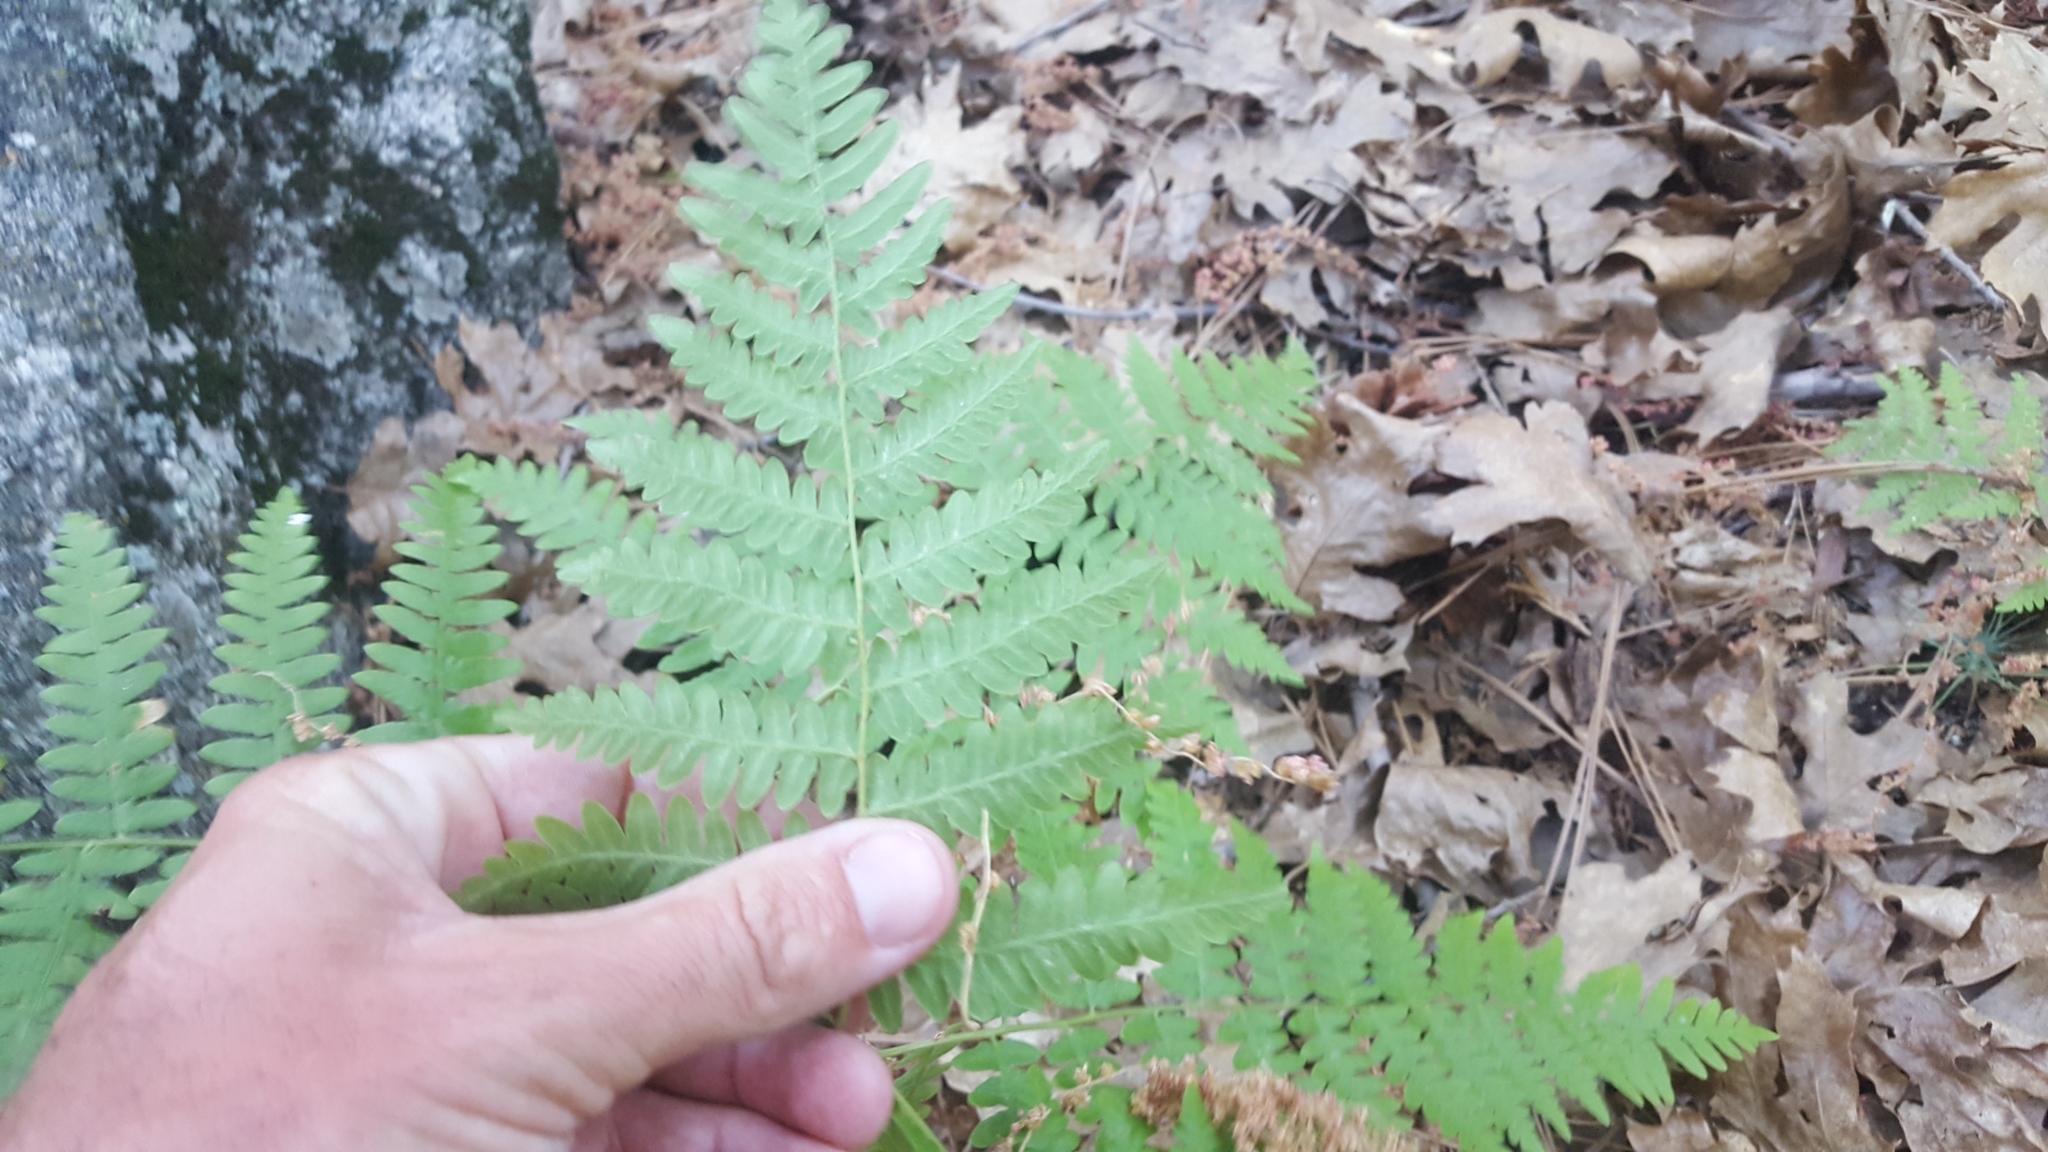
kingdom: Plantae
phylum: Tracheophyta
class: Polypodiopsida
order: Polypodiales
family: Dennstaedtiaceae
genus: Pteridium
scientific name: Pteridium aquilinum
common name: Bracken
